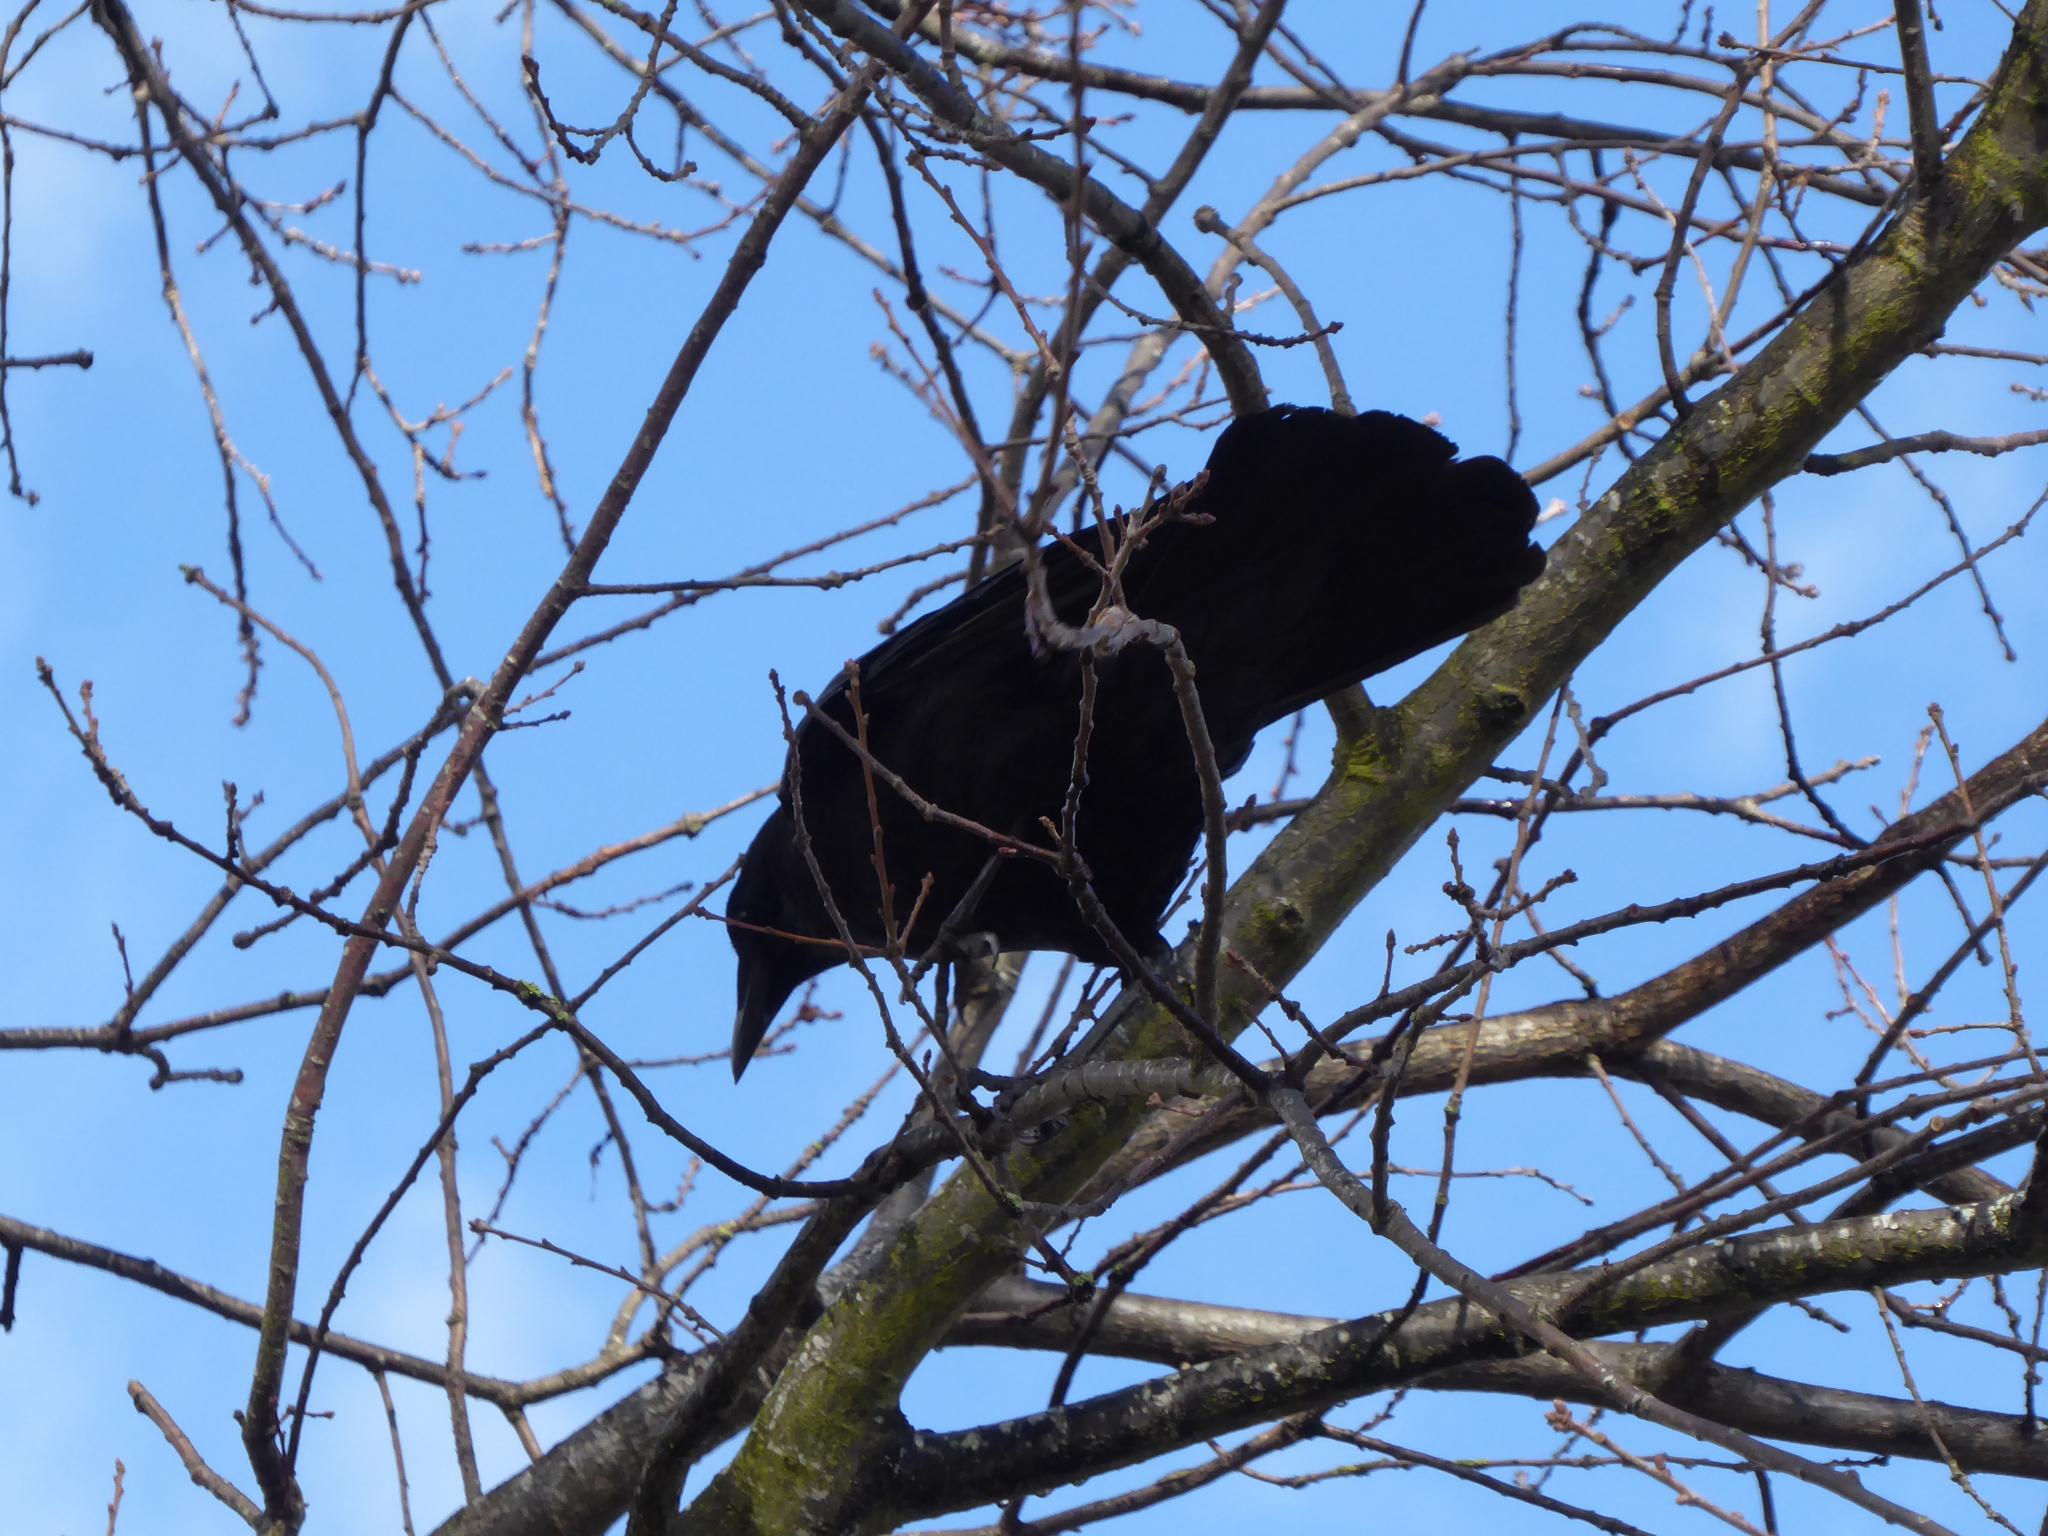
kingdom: Animalia
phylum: Chordata
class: Aves
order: Passeriformes
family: Corvidae
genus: Corvus
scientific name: Corvus corone
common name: Carrion crow
